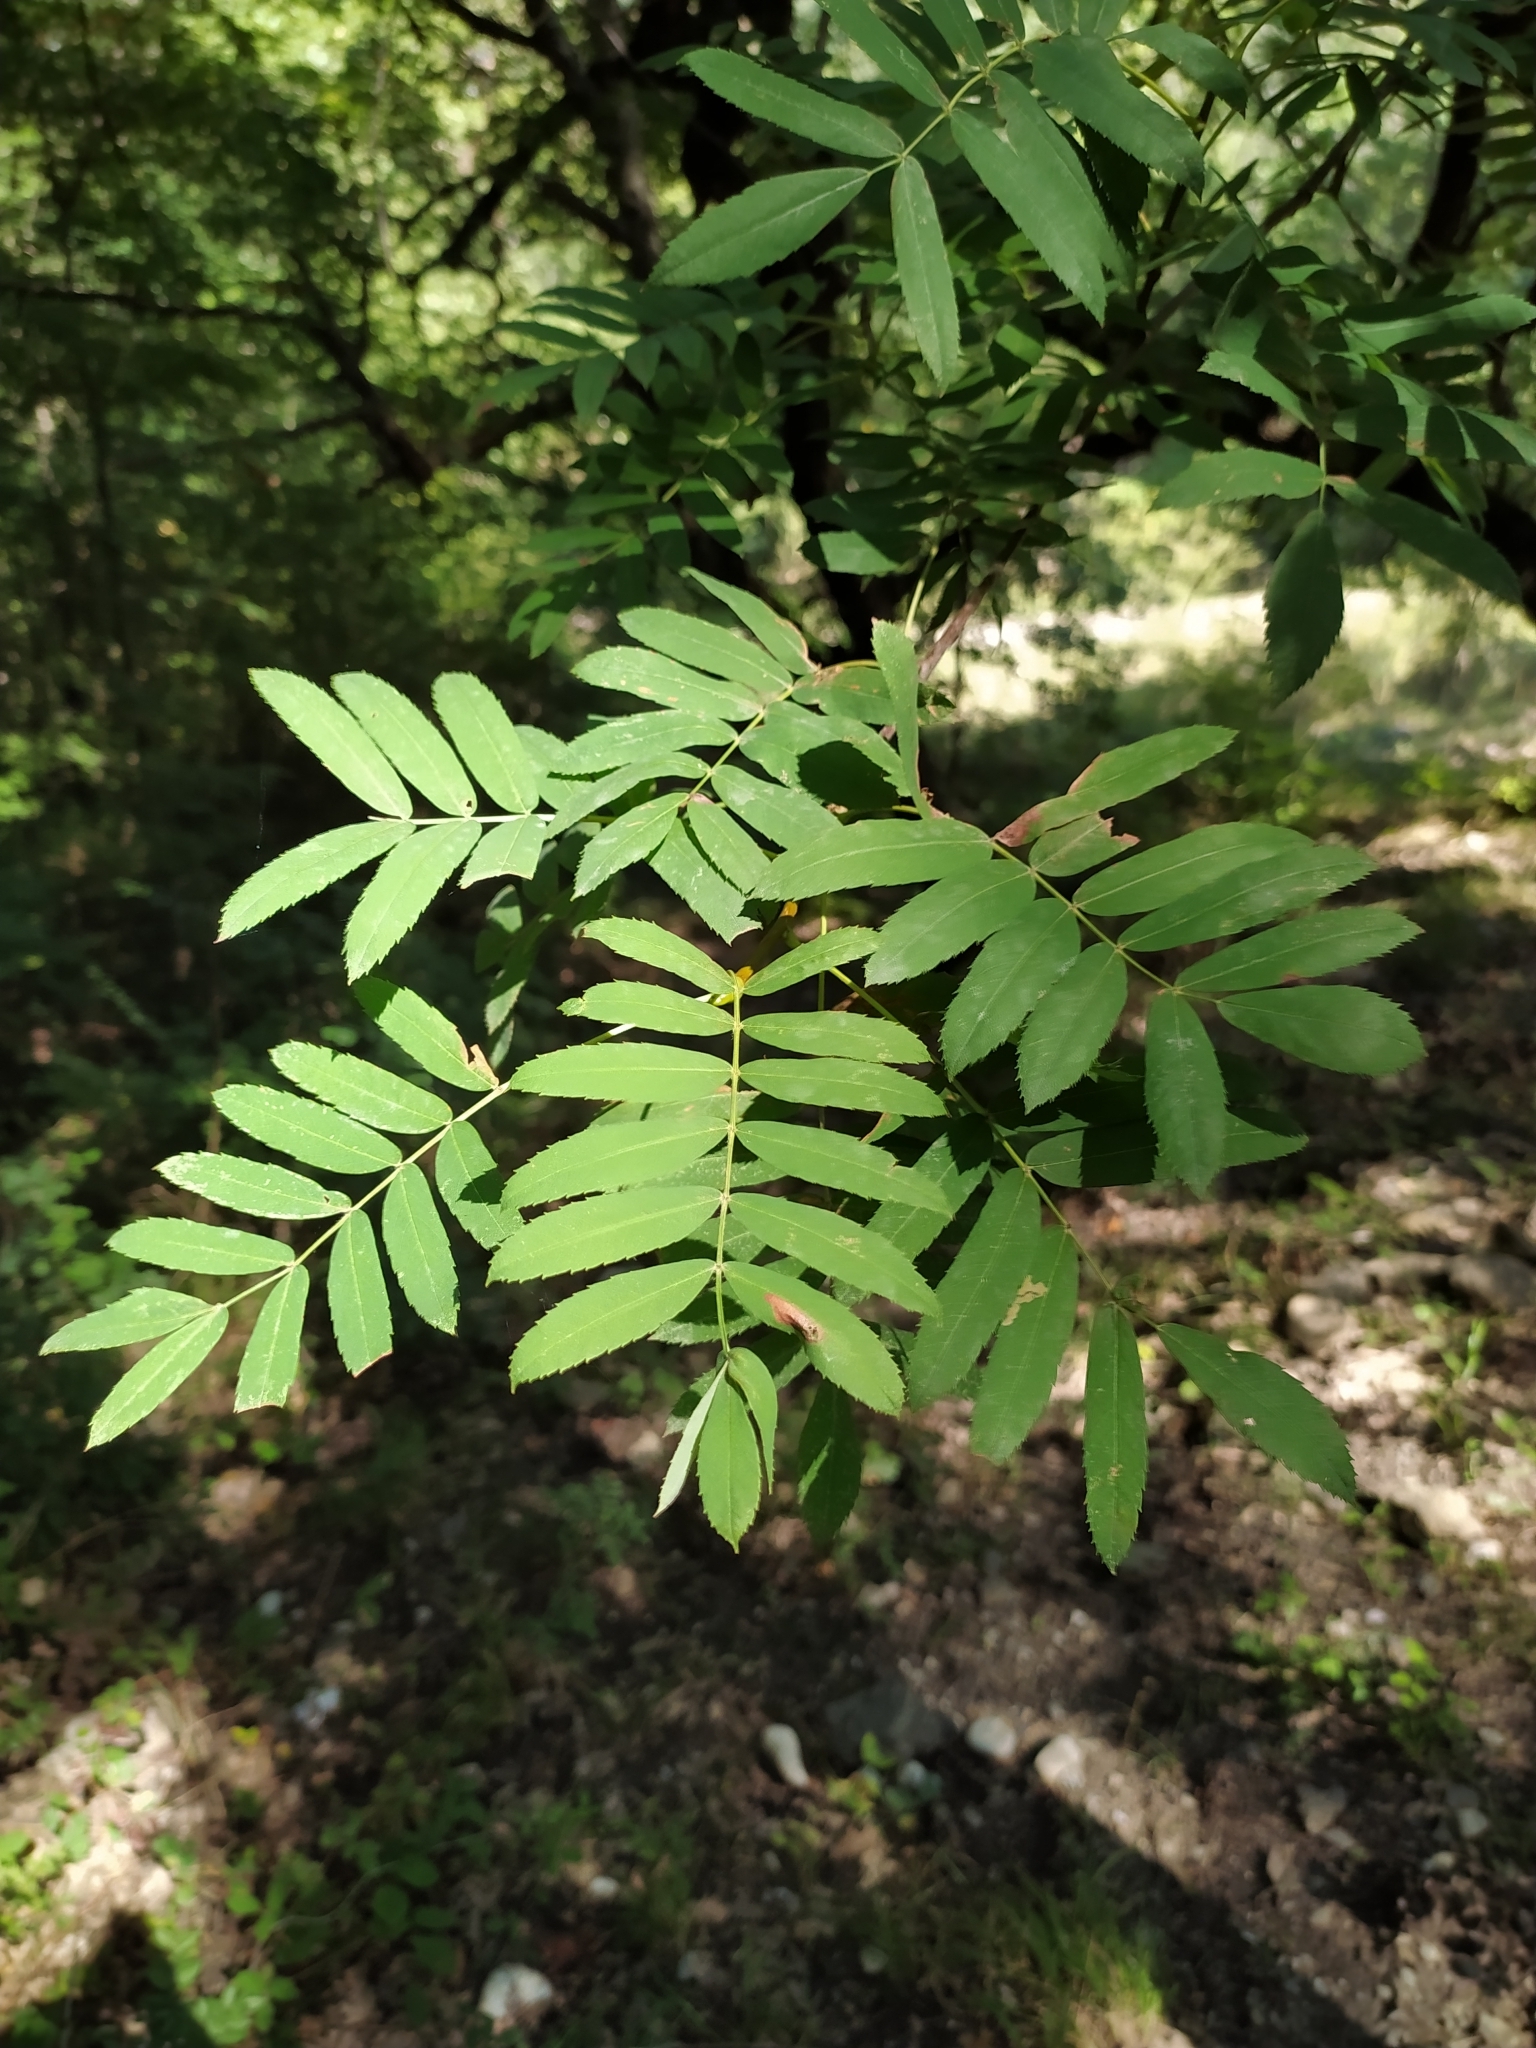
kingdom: Plantae
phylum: Tracheophyta
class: Magnoliopsida
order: Rosales
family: Rosaceae
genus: Cormus
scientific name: Cormus domestica
